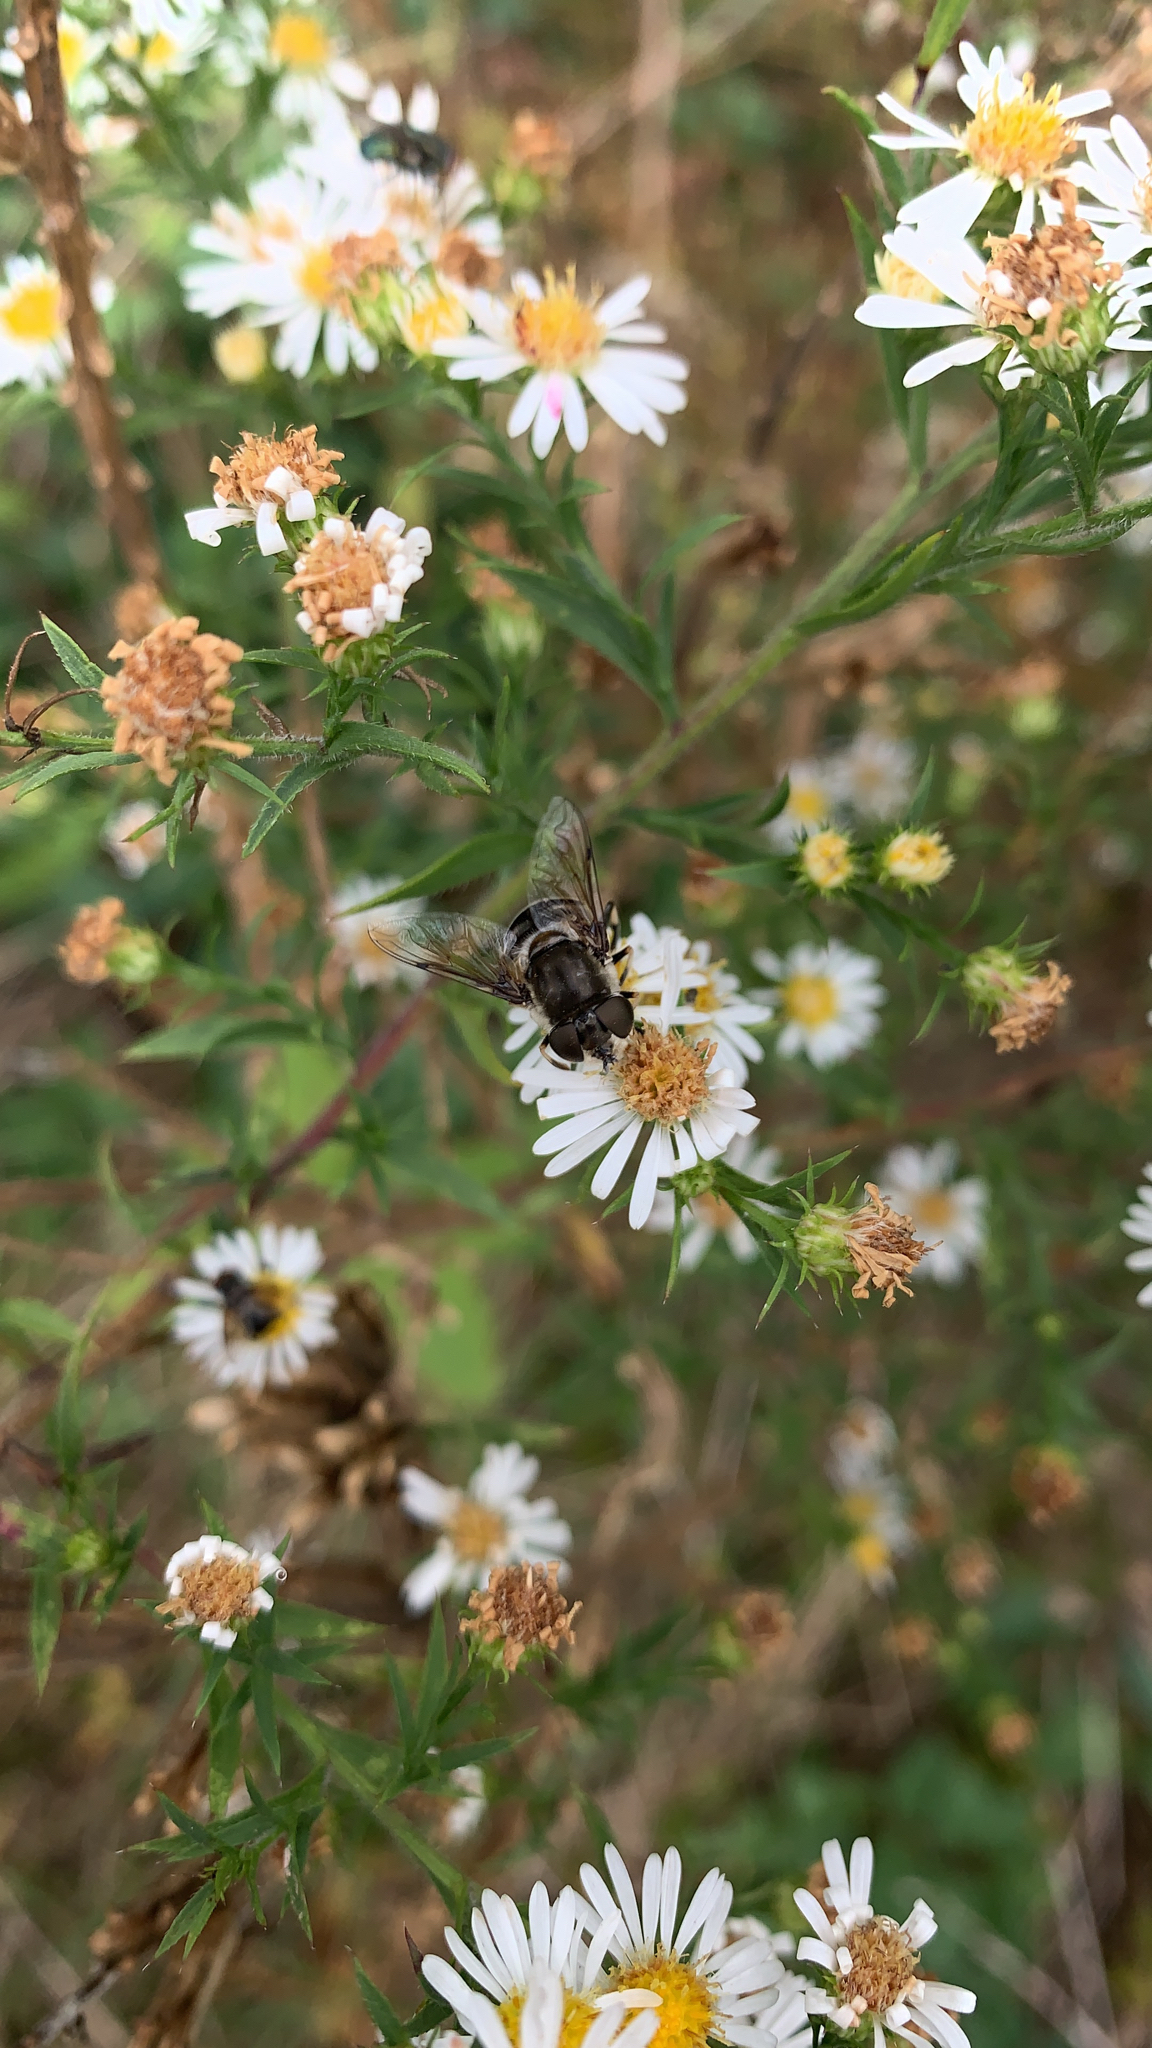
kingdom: Animalia
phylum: Arthropoda
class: Insecta
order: Diptera
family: Syrphidae
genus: Eristalis
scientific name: Eristalis dimidiata
